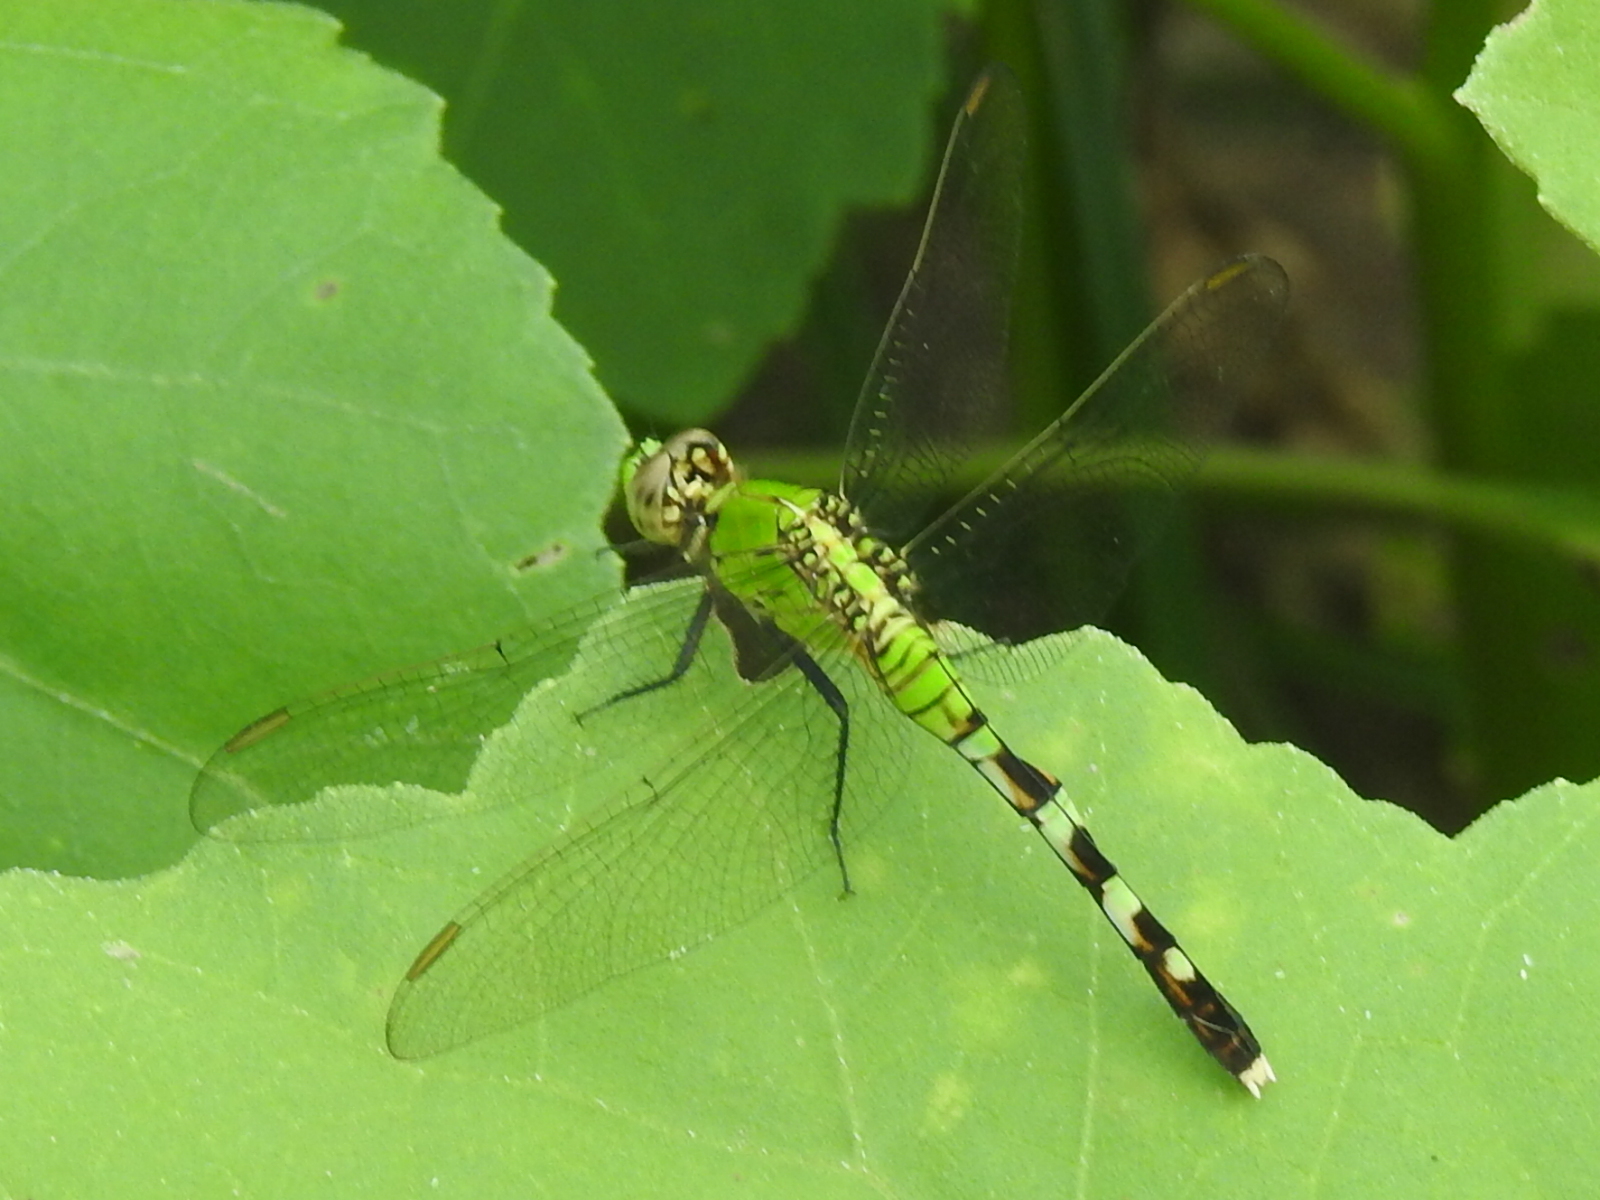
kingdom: Animalia
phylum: Arthropoda
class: Insecta
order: Odonata
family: Libellulidae
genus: Erythemis
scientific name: Erythemis simplicicollis
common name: Eastern pondhawk
